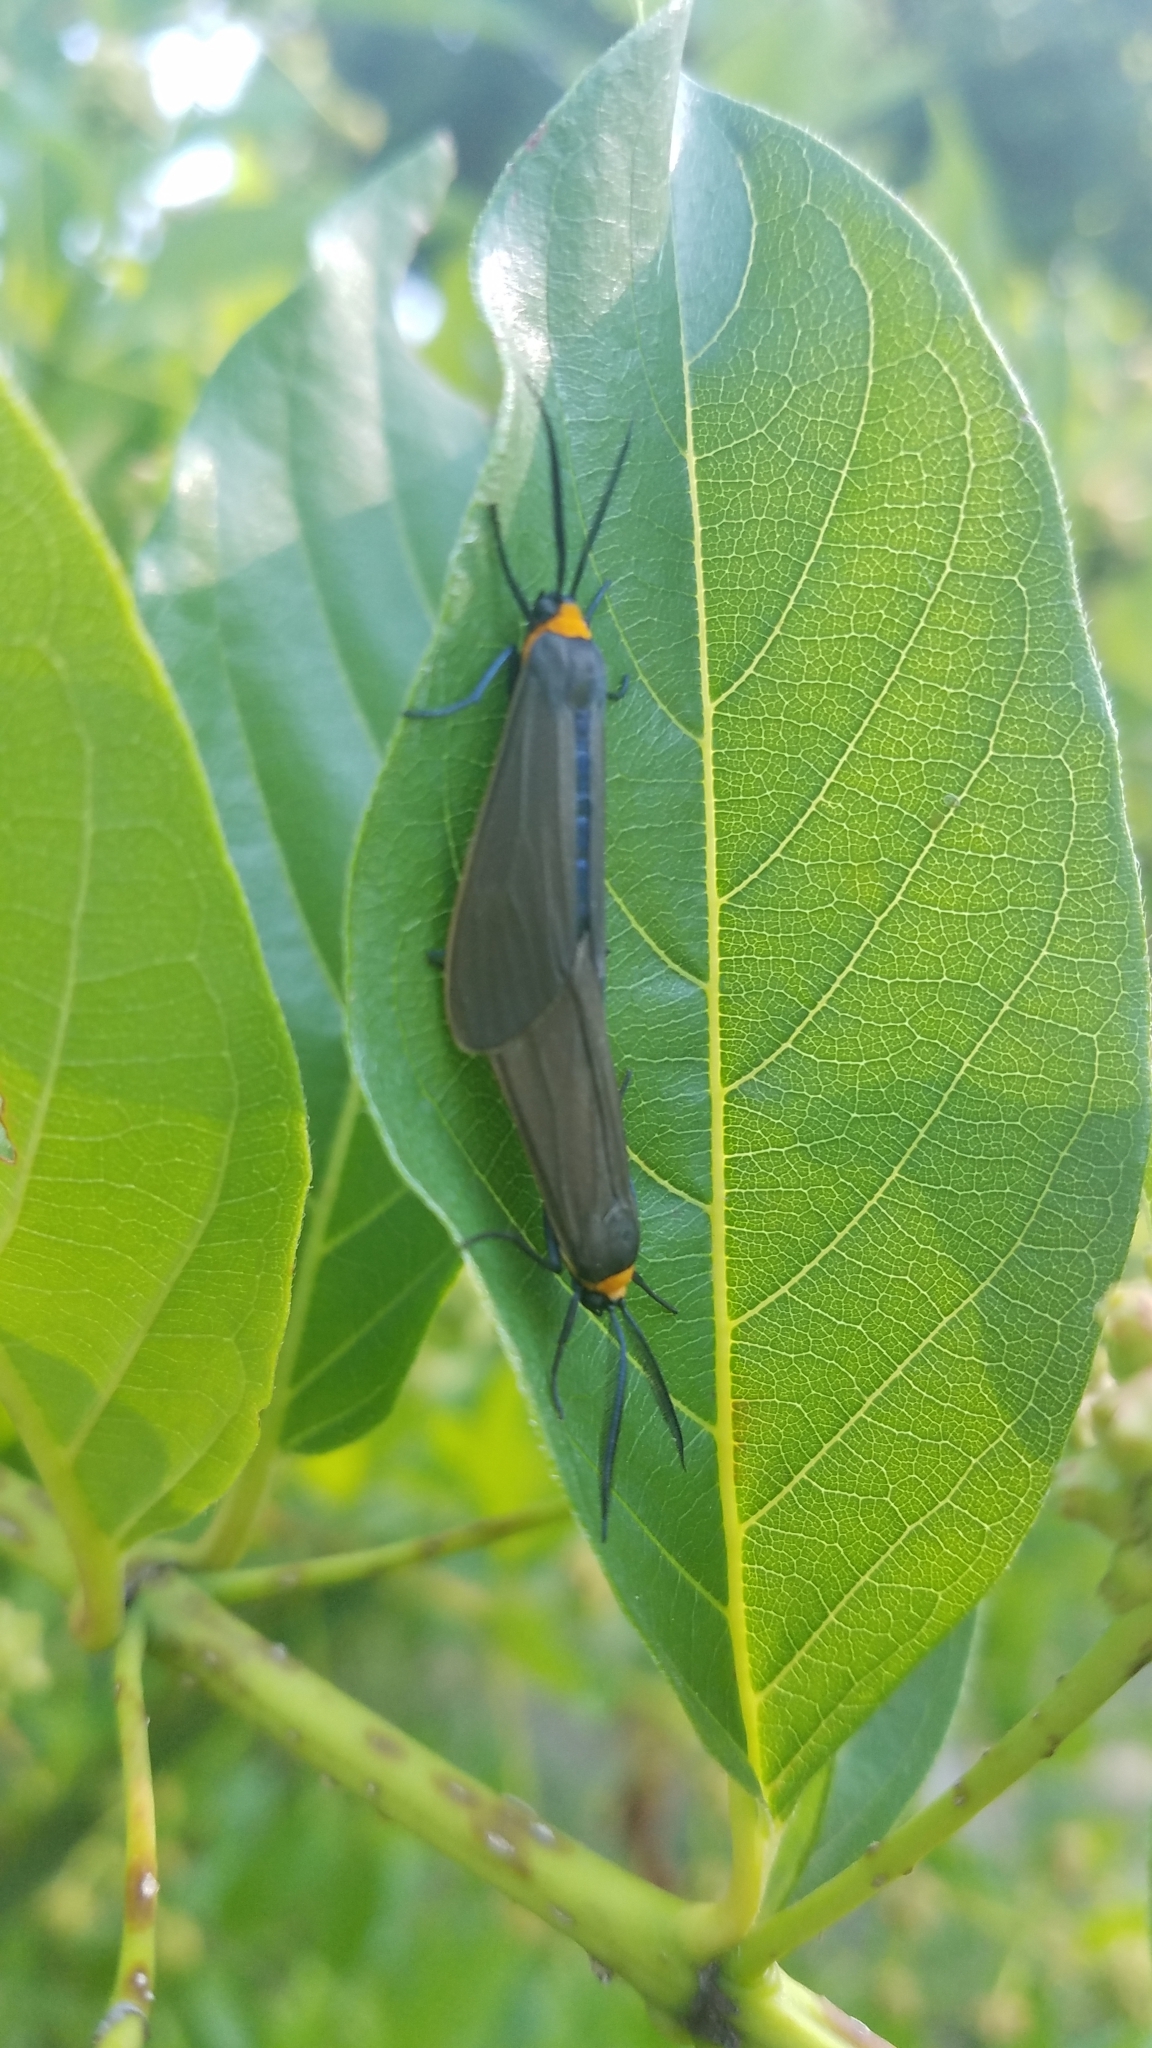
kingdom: Animalia
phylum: Arthropoda
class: Insecta
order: Lepidoptera
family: Erebidae
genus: Cisseps
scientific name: Cisseps fulvicollis
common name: Yellow-collared scape moth
